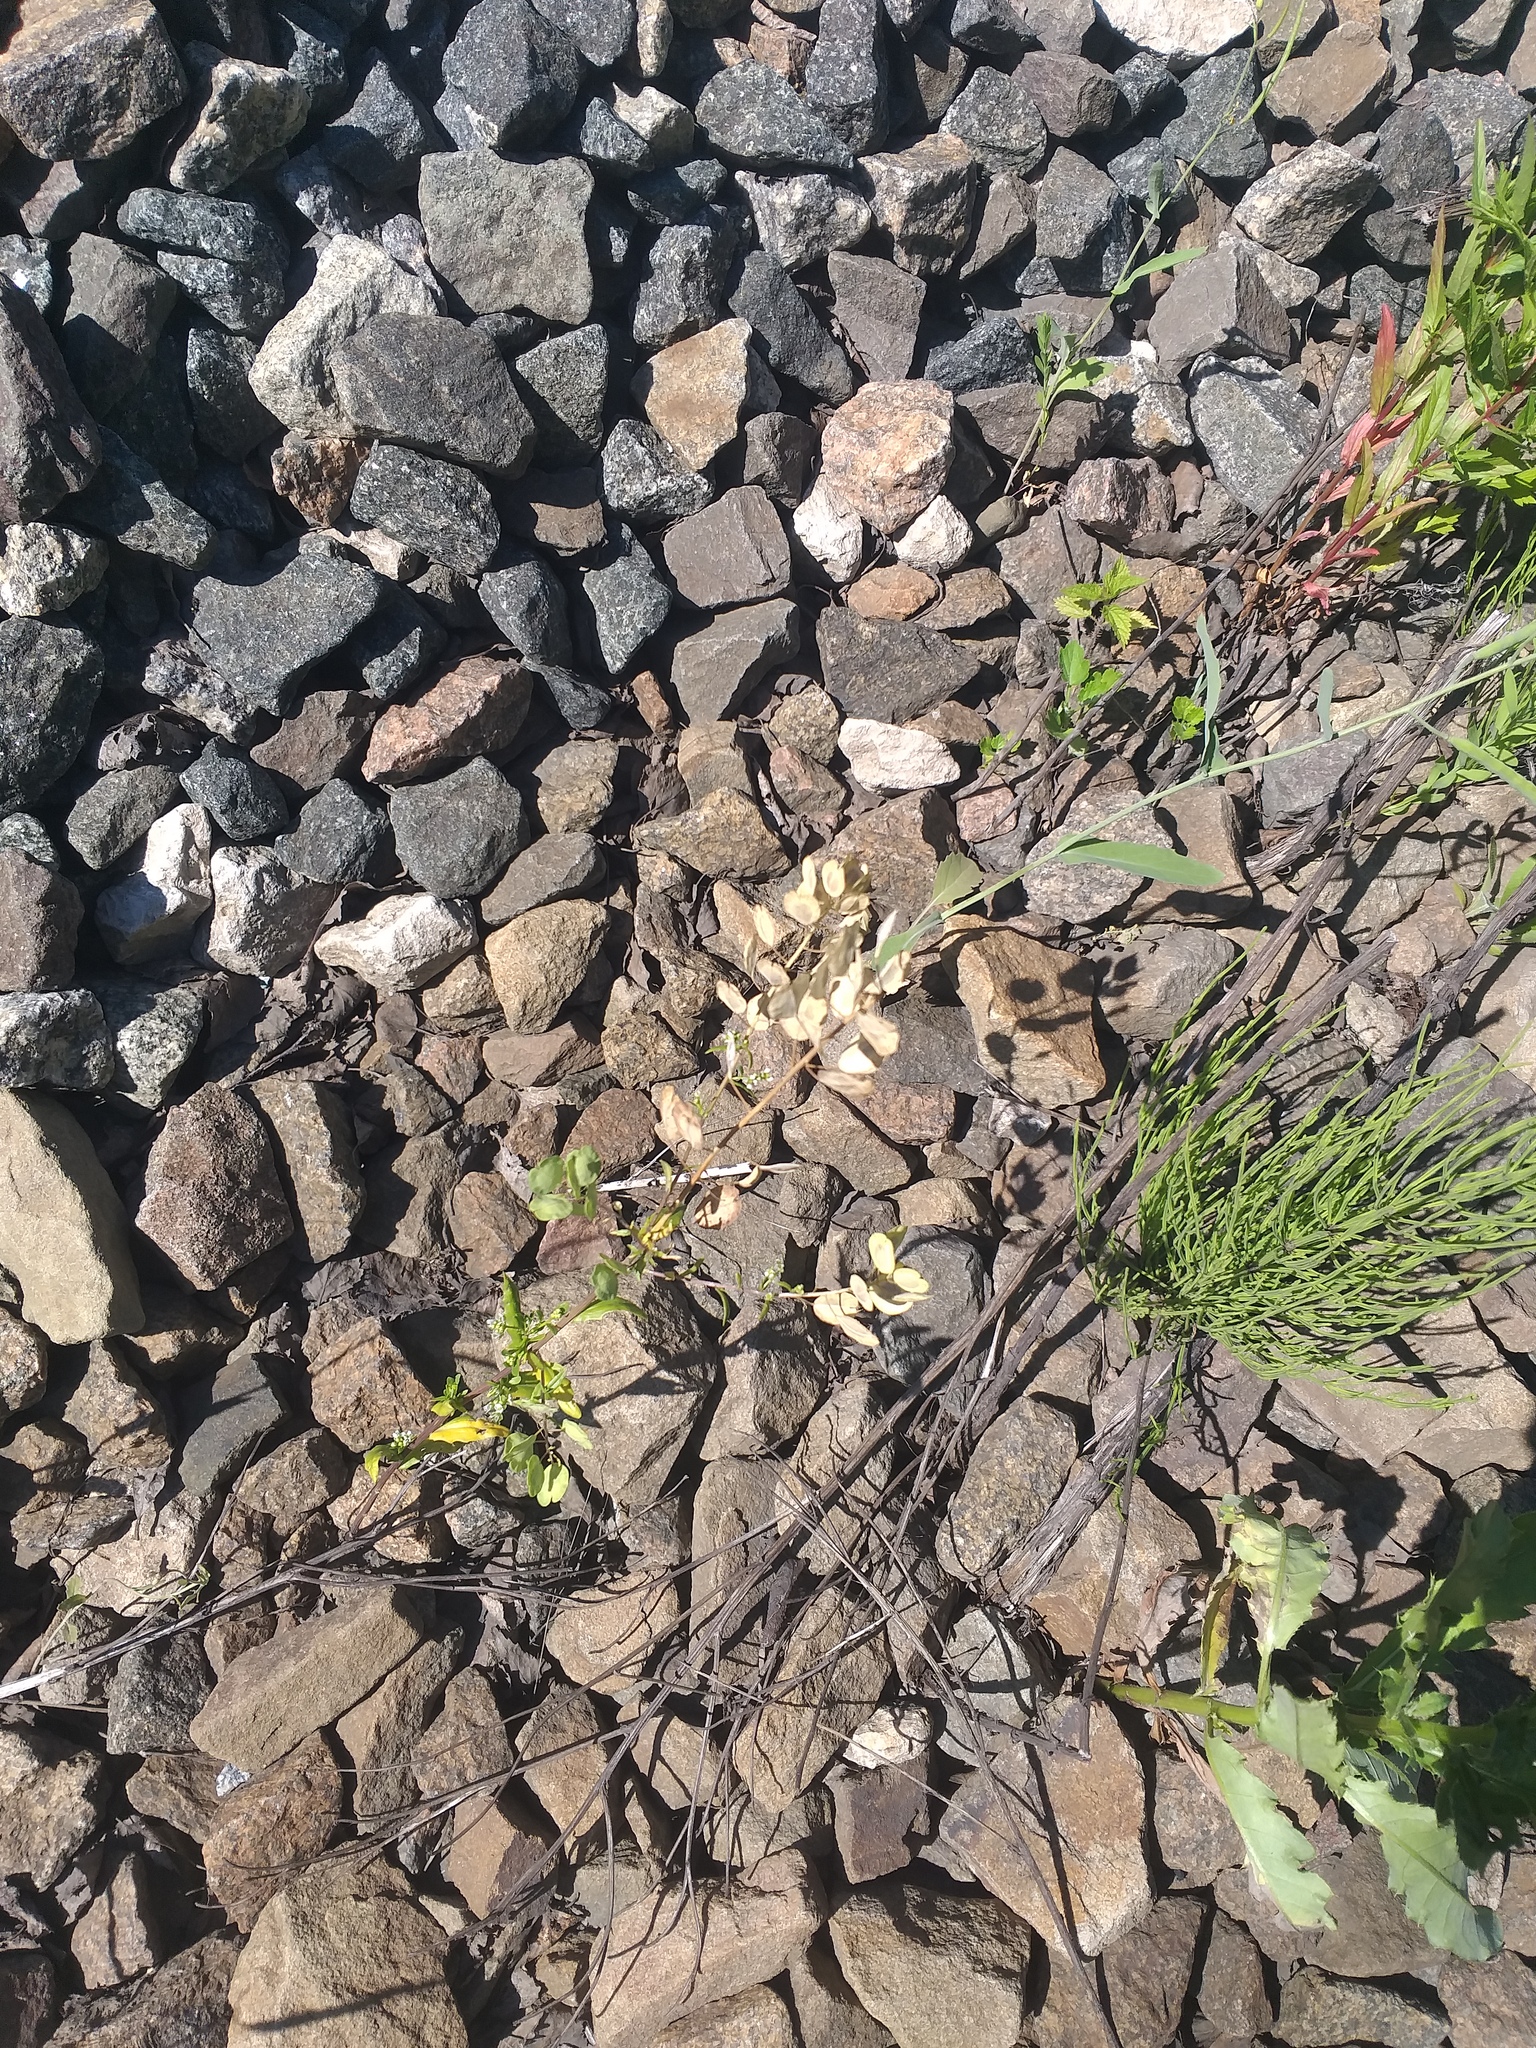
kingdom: Plantae
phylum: Tracheophyta
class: Magnoliopsida
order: Brassicales
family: Brassicaceae
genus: Thlaspi
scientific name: Thlaspi arvense
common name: Field pennycress
